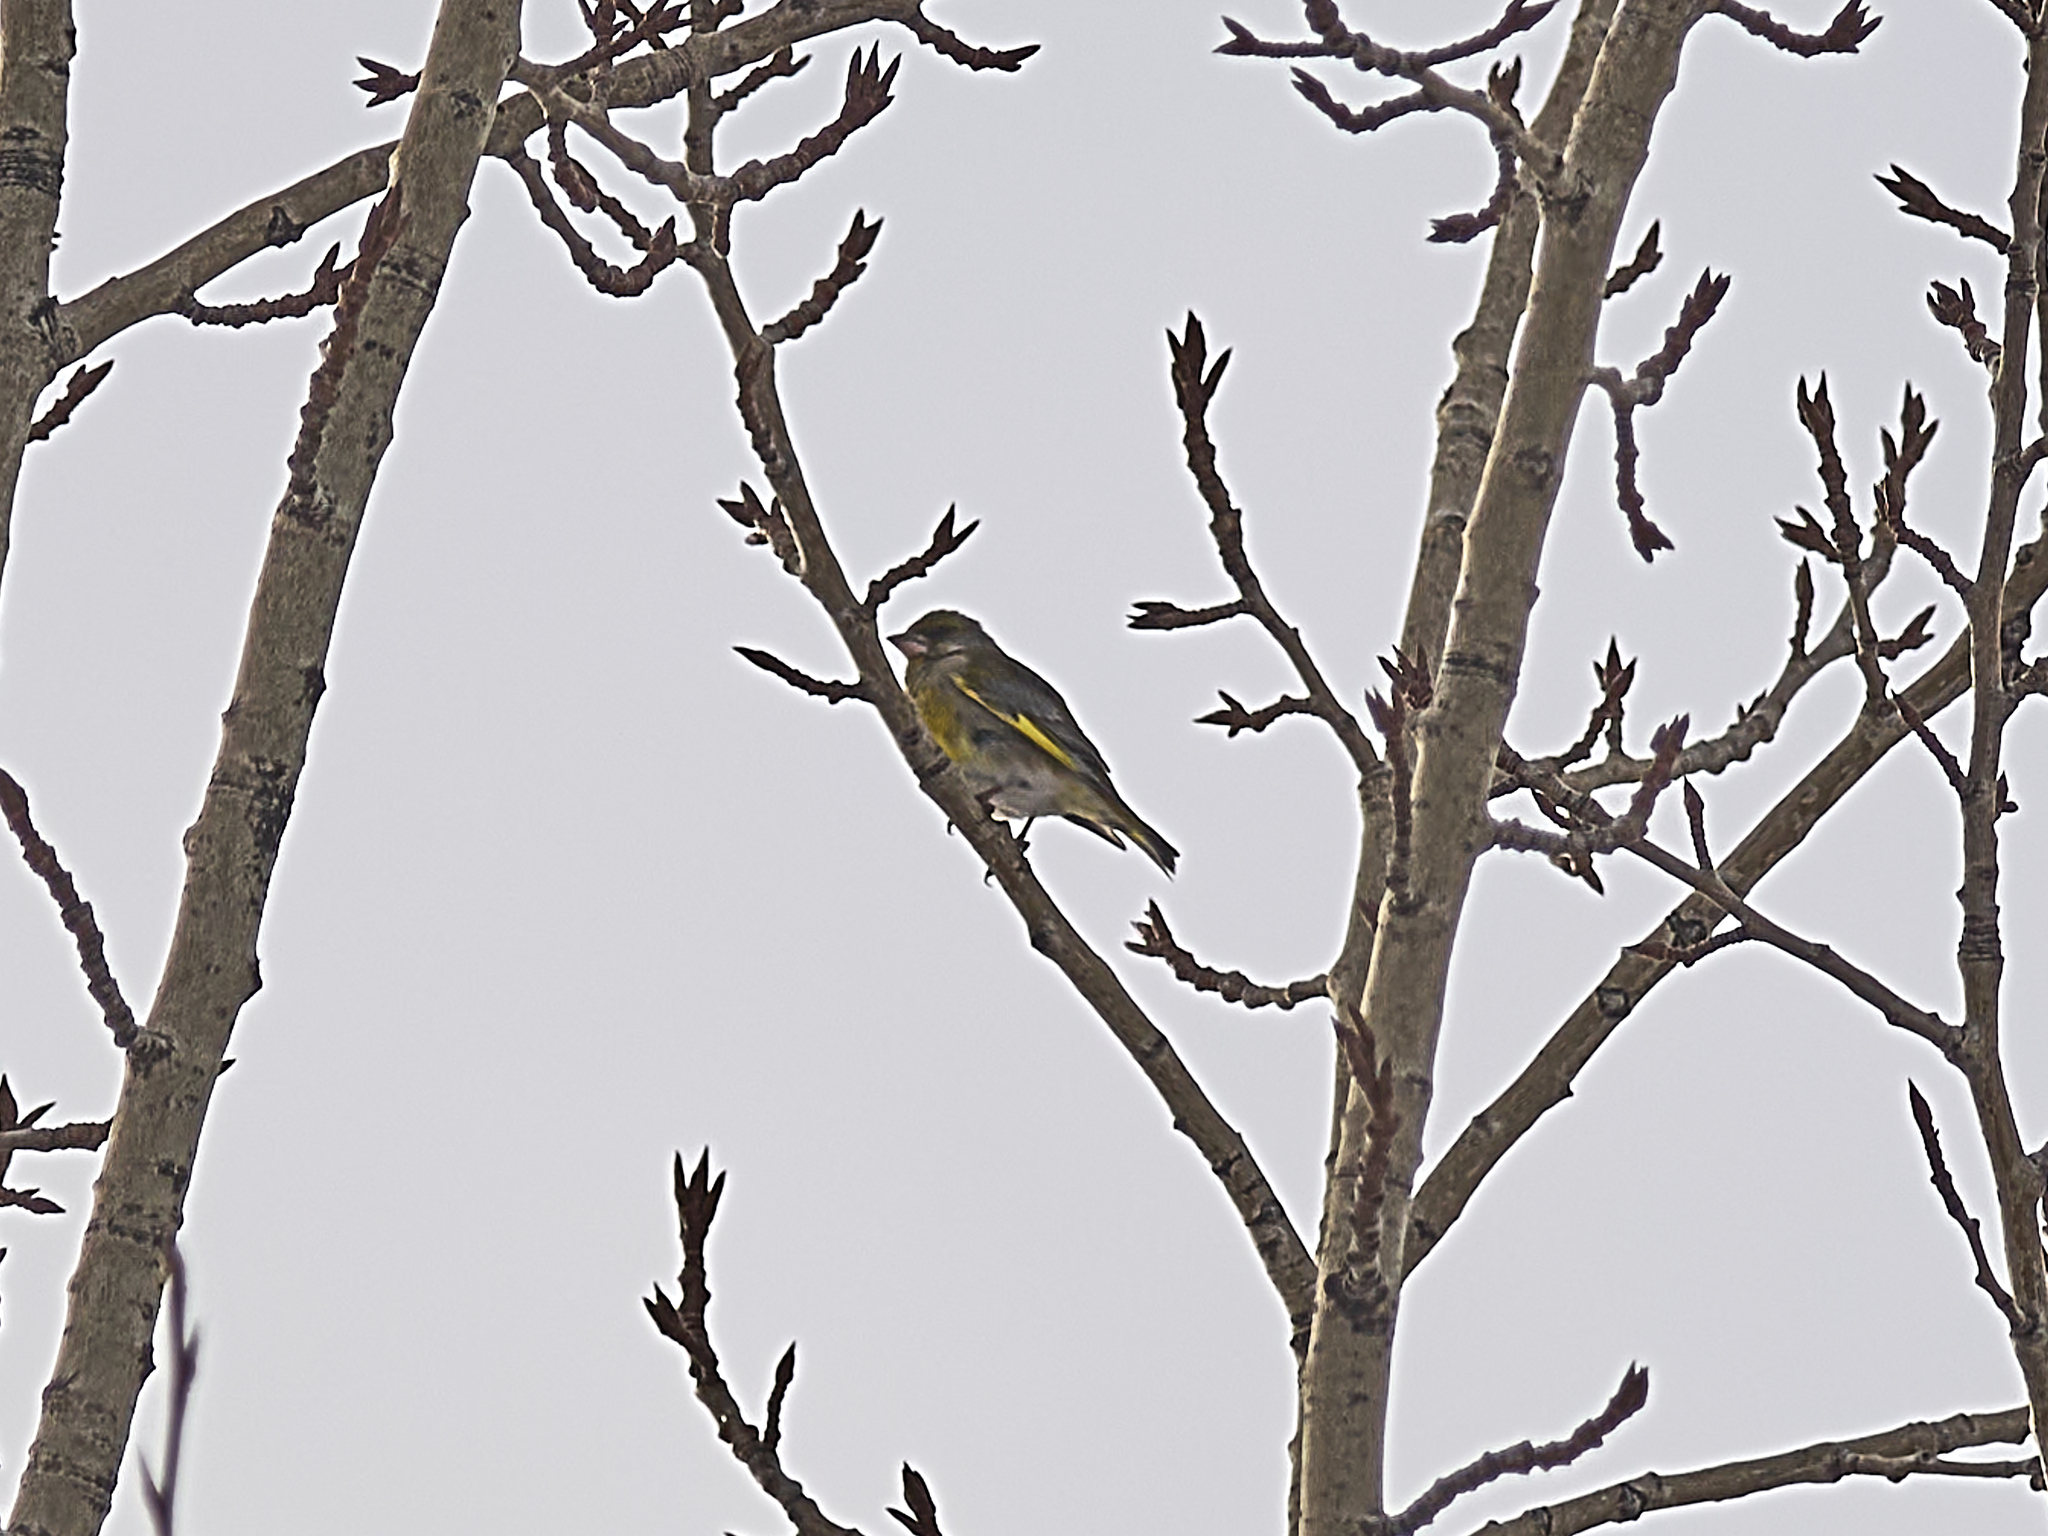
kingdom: Plantae
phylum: Tracheophyta
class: Liliopsida
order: Poales
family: Poaceae
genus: Chloris
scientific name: Chloris chloris
